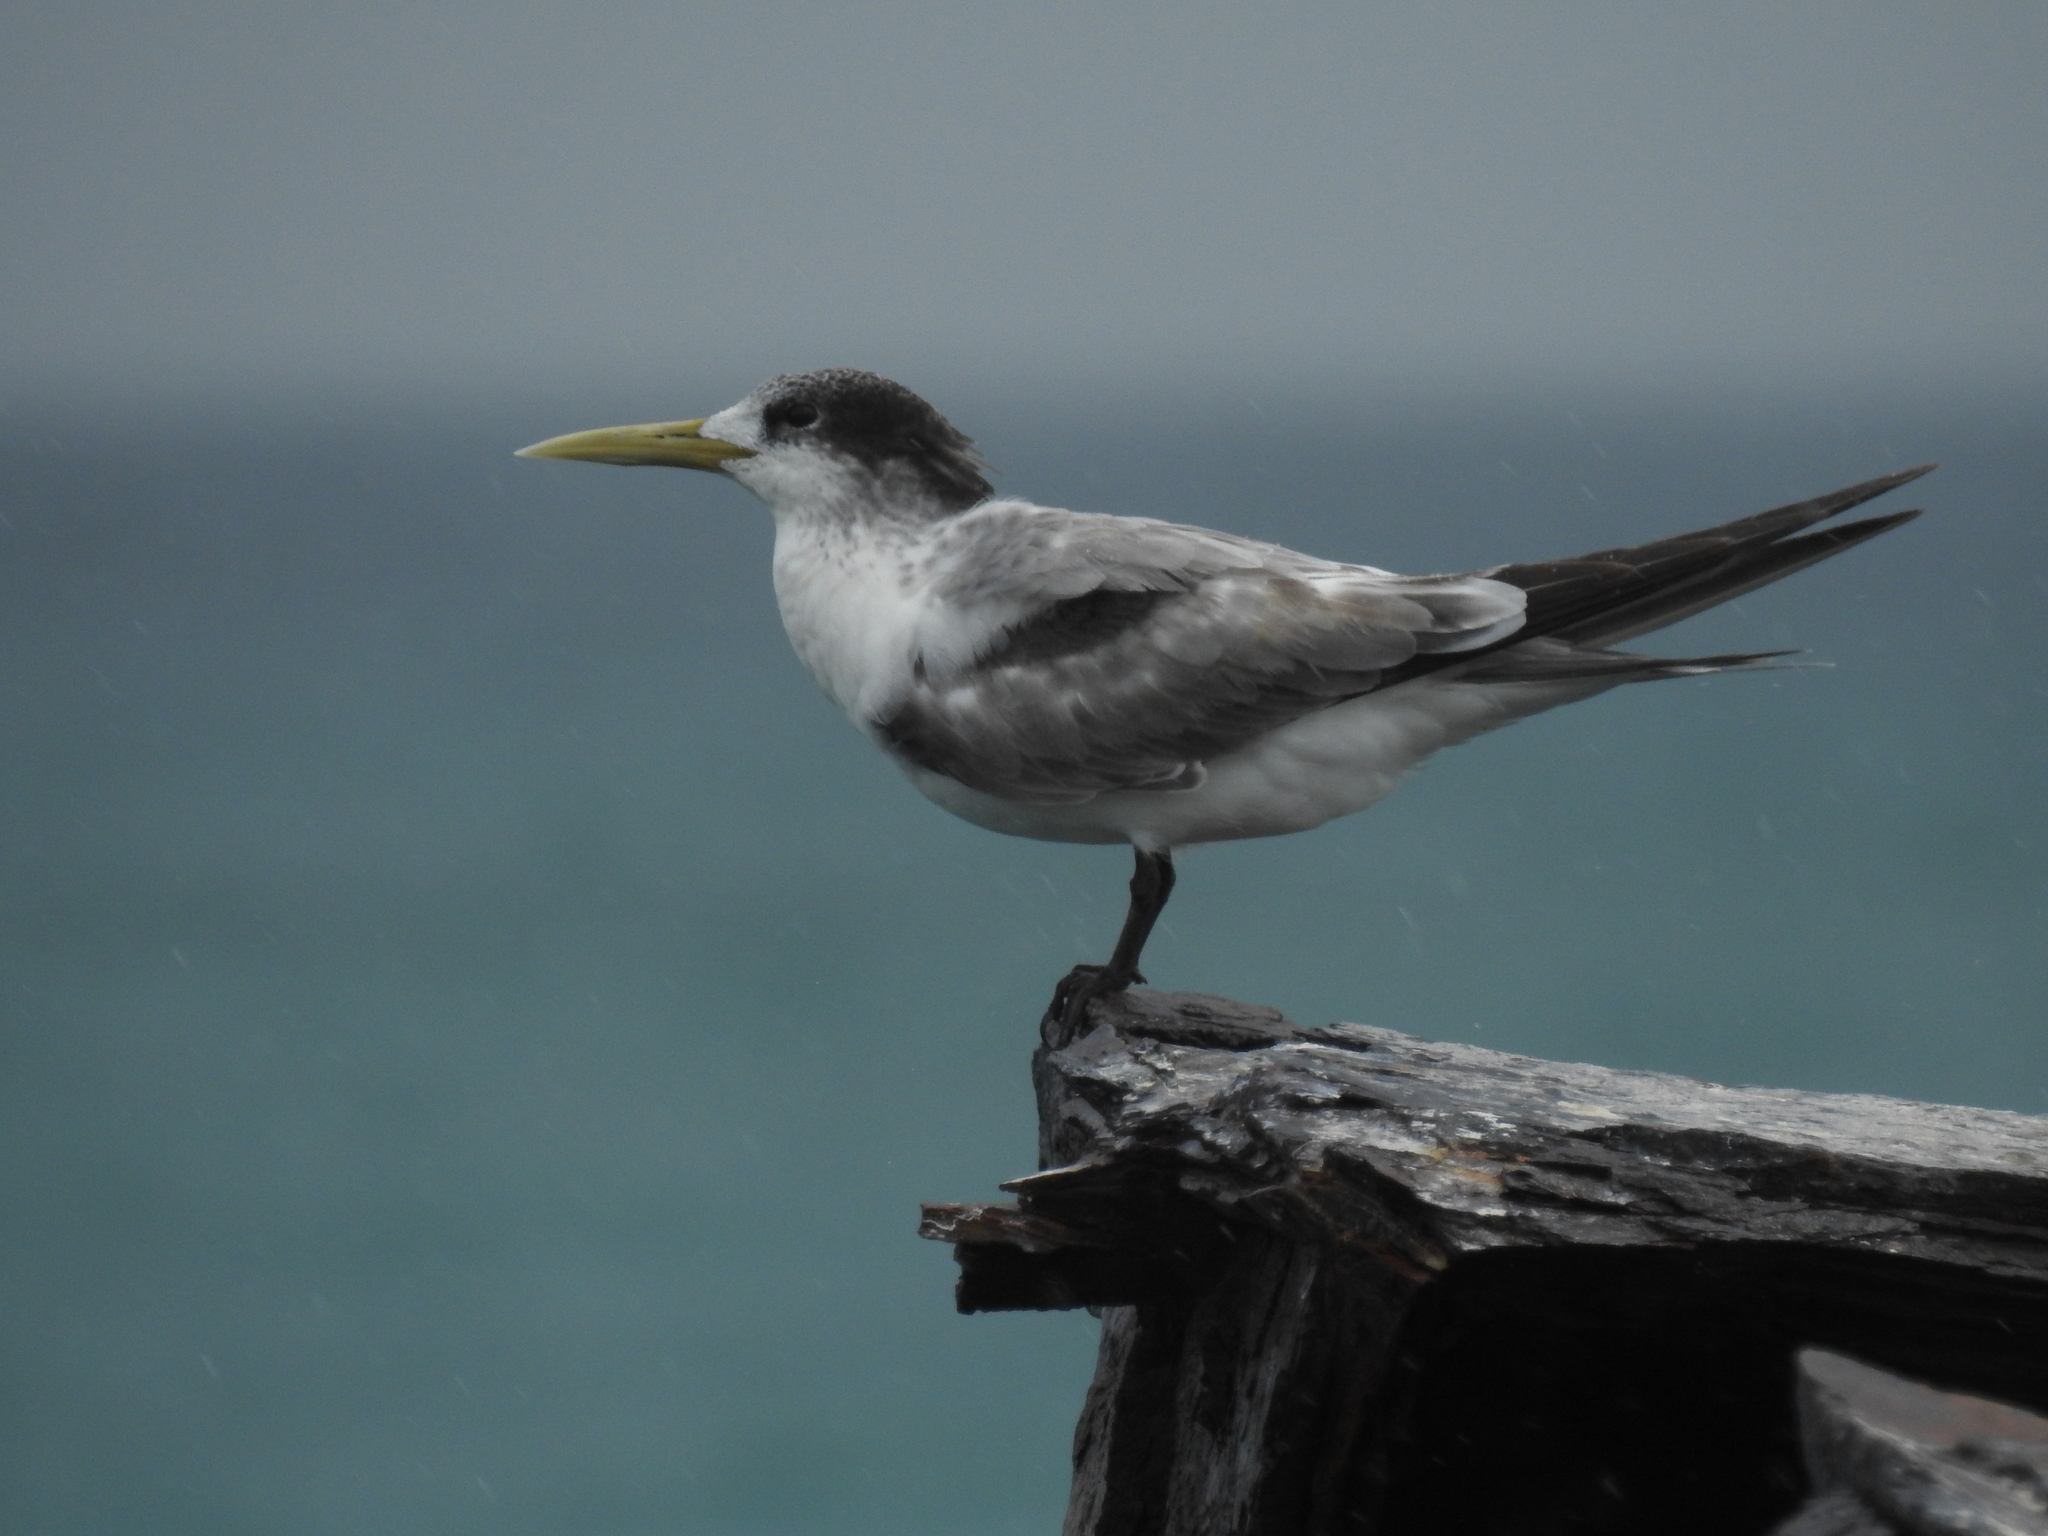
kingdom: Animalia
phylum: Chordata
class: Aves
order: Charadriiformes
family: Laridae
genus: Thalasseus
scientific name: Thalasseus bergii
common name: Greater crested tern
